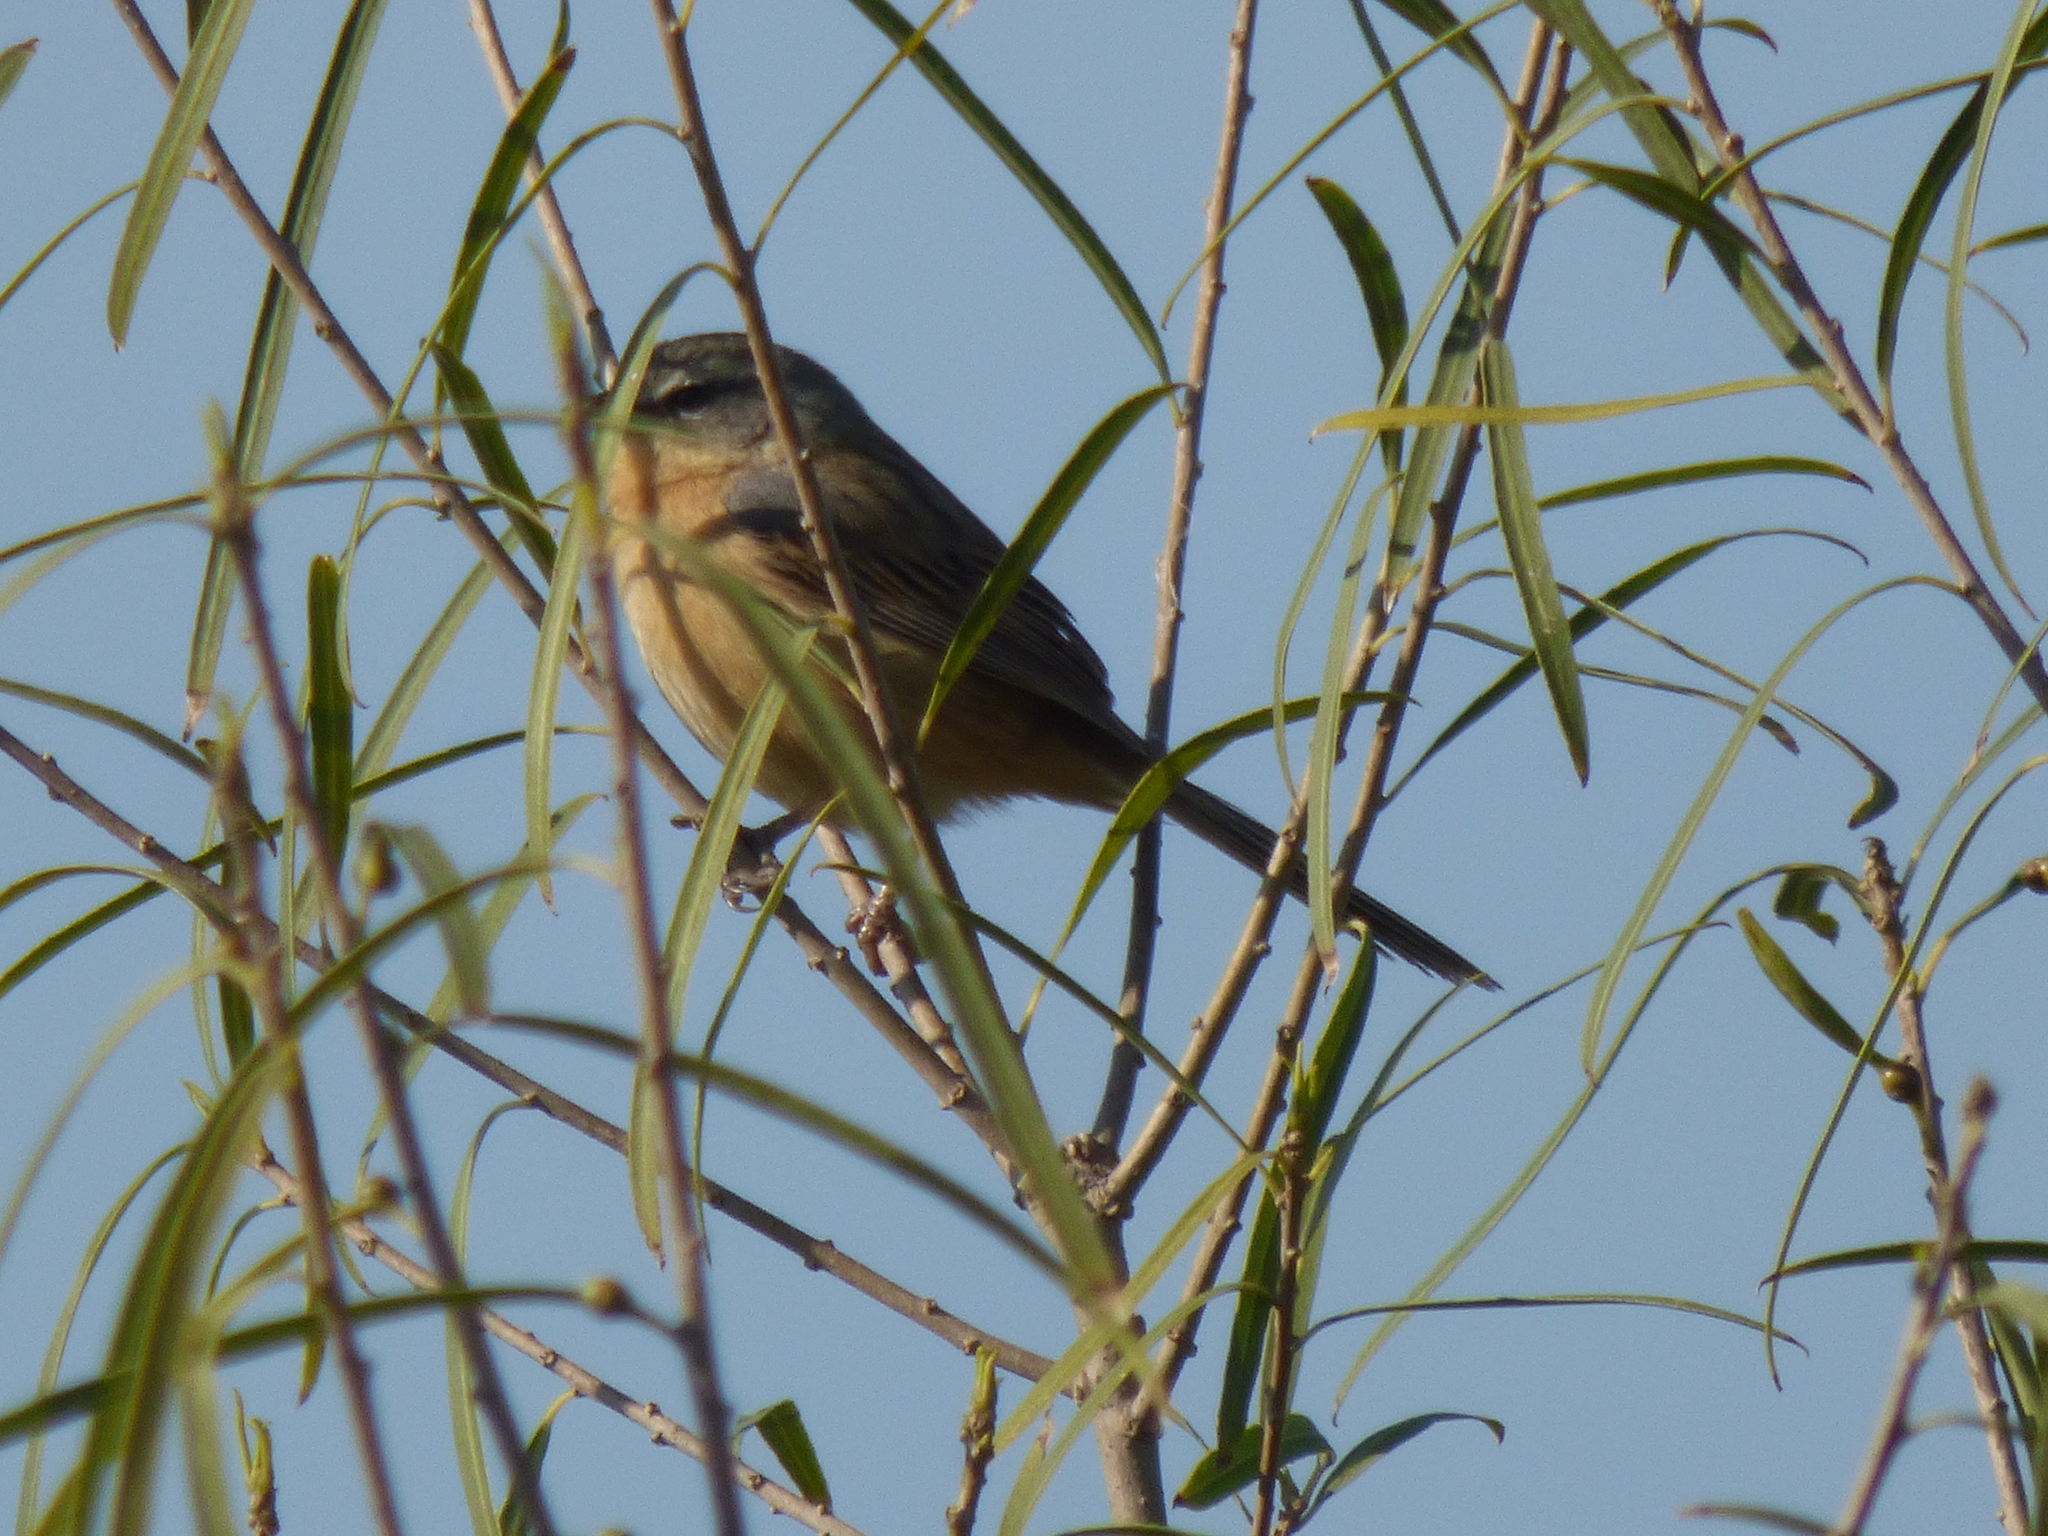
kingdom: Animalia
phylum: Chordata
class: Aves
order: Passeriformes
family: Thraupidae
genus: Donacospiza
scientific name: Donacospiza albifrons
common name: Long-tailed reed finch
